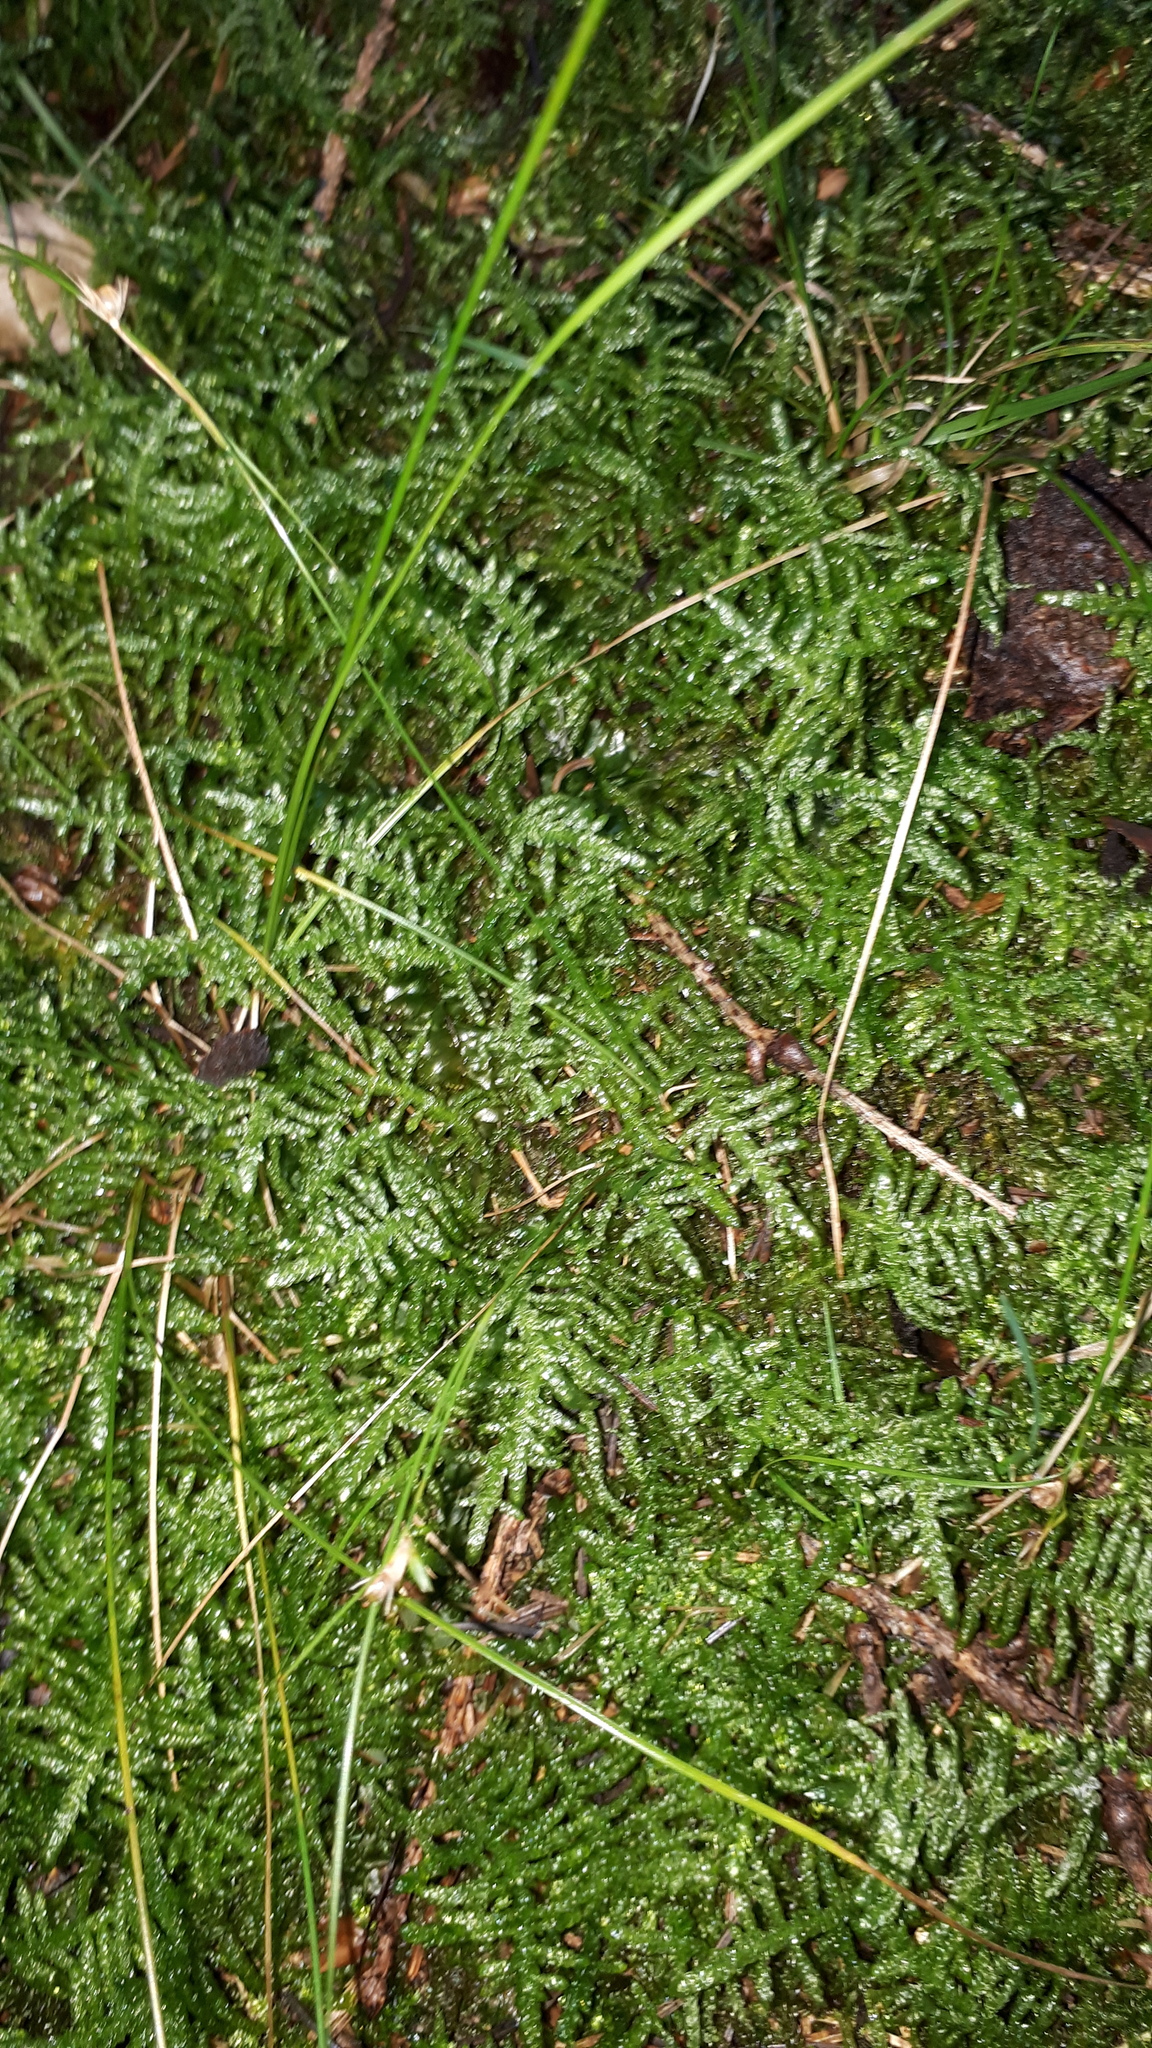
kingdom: Plantae
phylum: Bryophyta
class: Bryopsida
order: Hypnales
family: Brachytheciaceae
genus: Pseudoscleropodium
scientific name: Pseudoscleropodium purum
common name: Neat feather-moss
